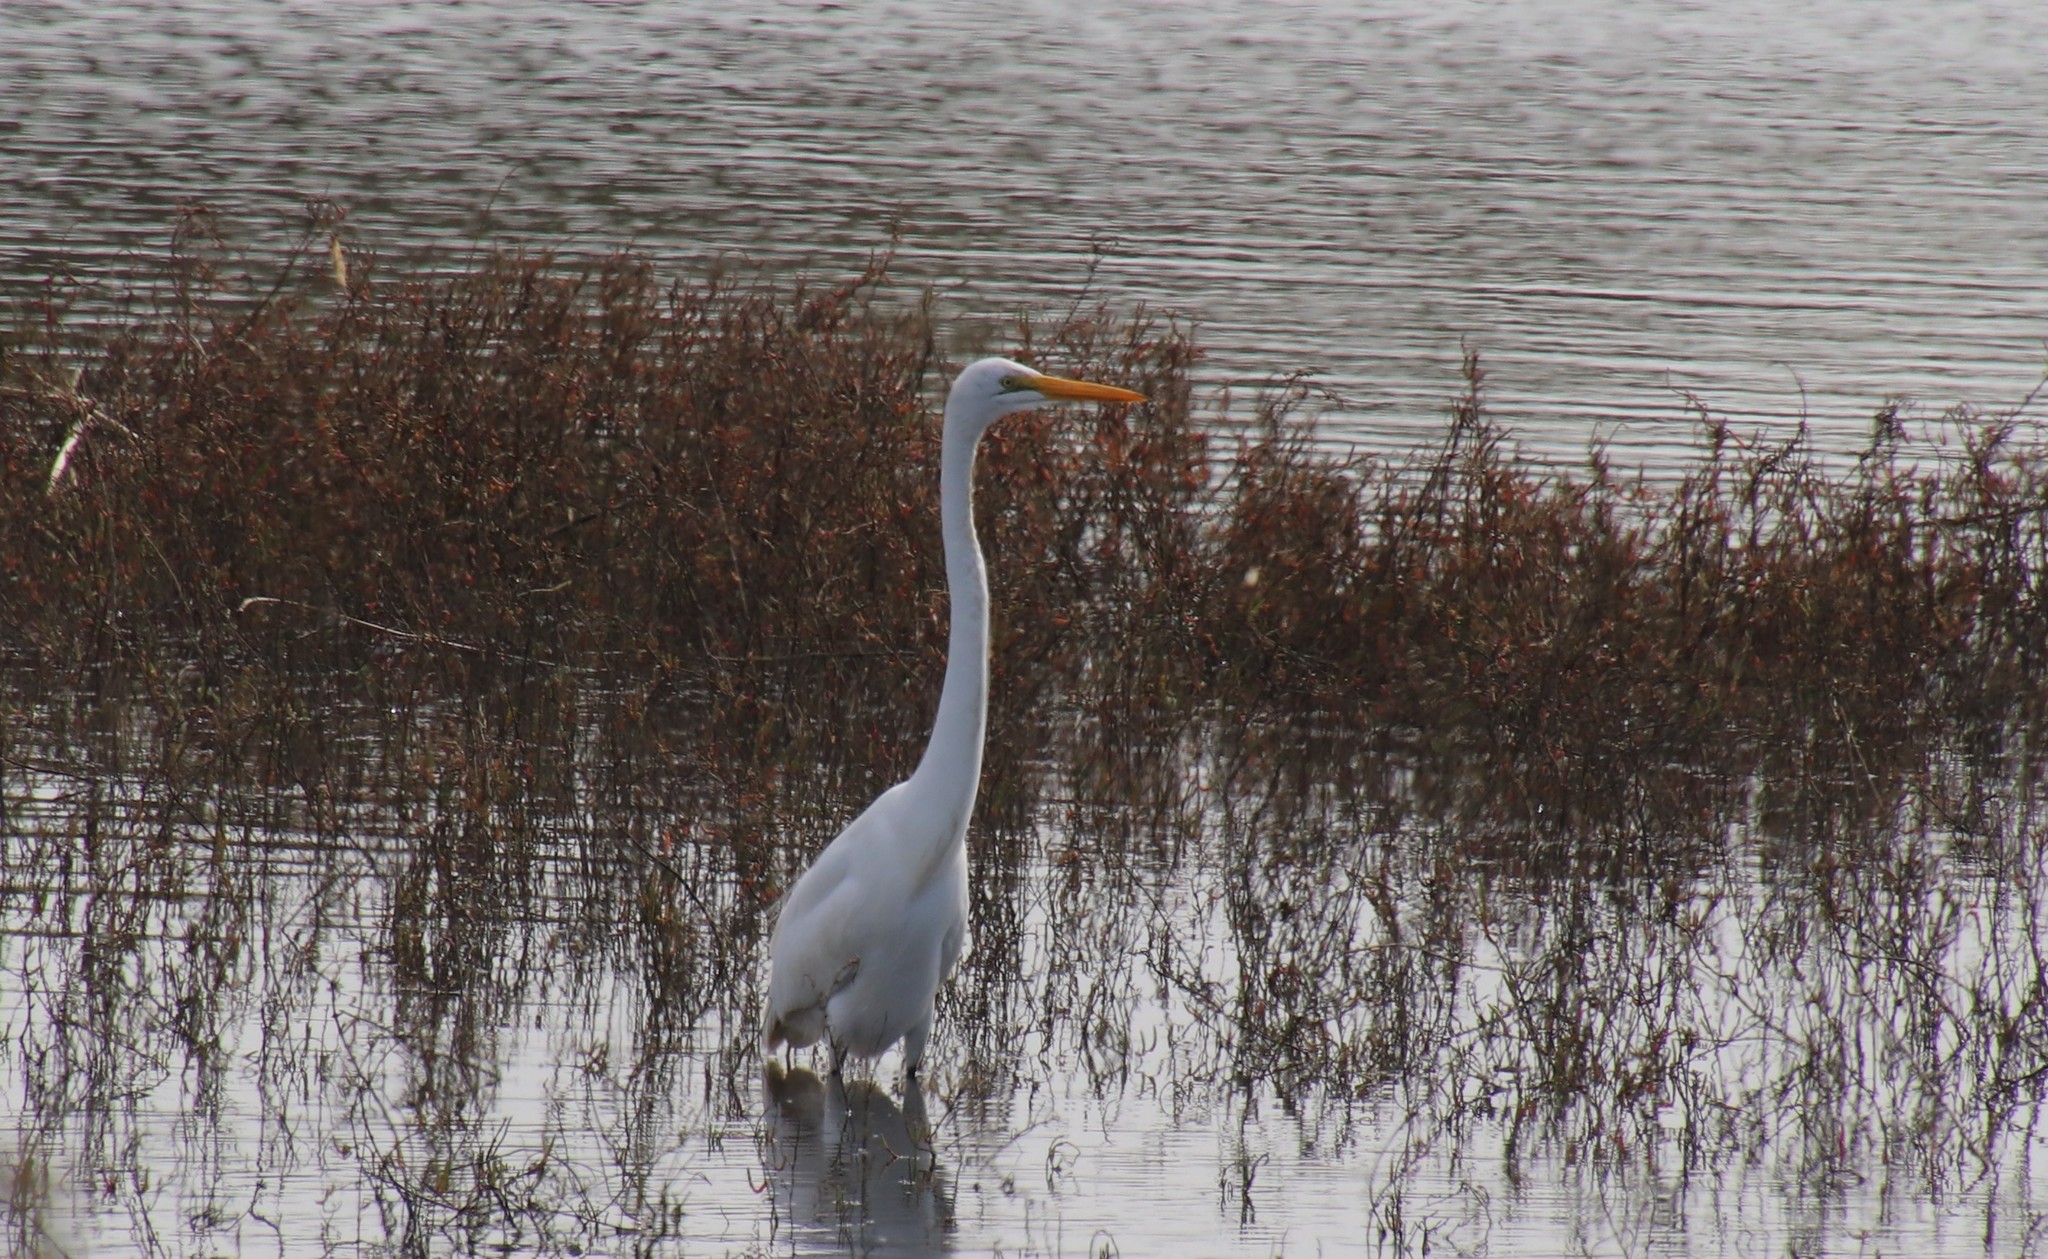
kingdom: Animalia
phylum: Chordata
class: Aves
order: Pelecaniformes
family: Ardeidae
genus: Ardea
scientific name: Ardea alba
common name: Great egret
